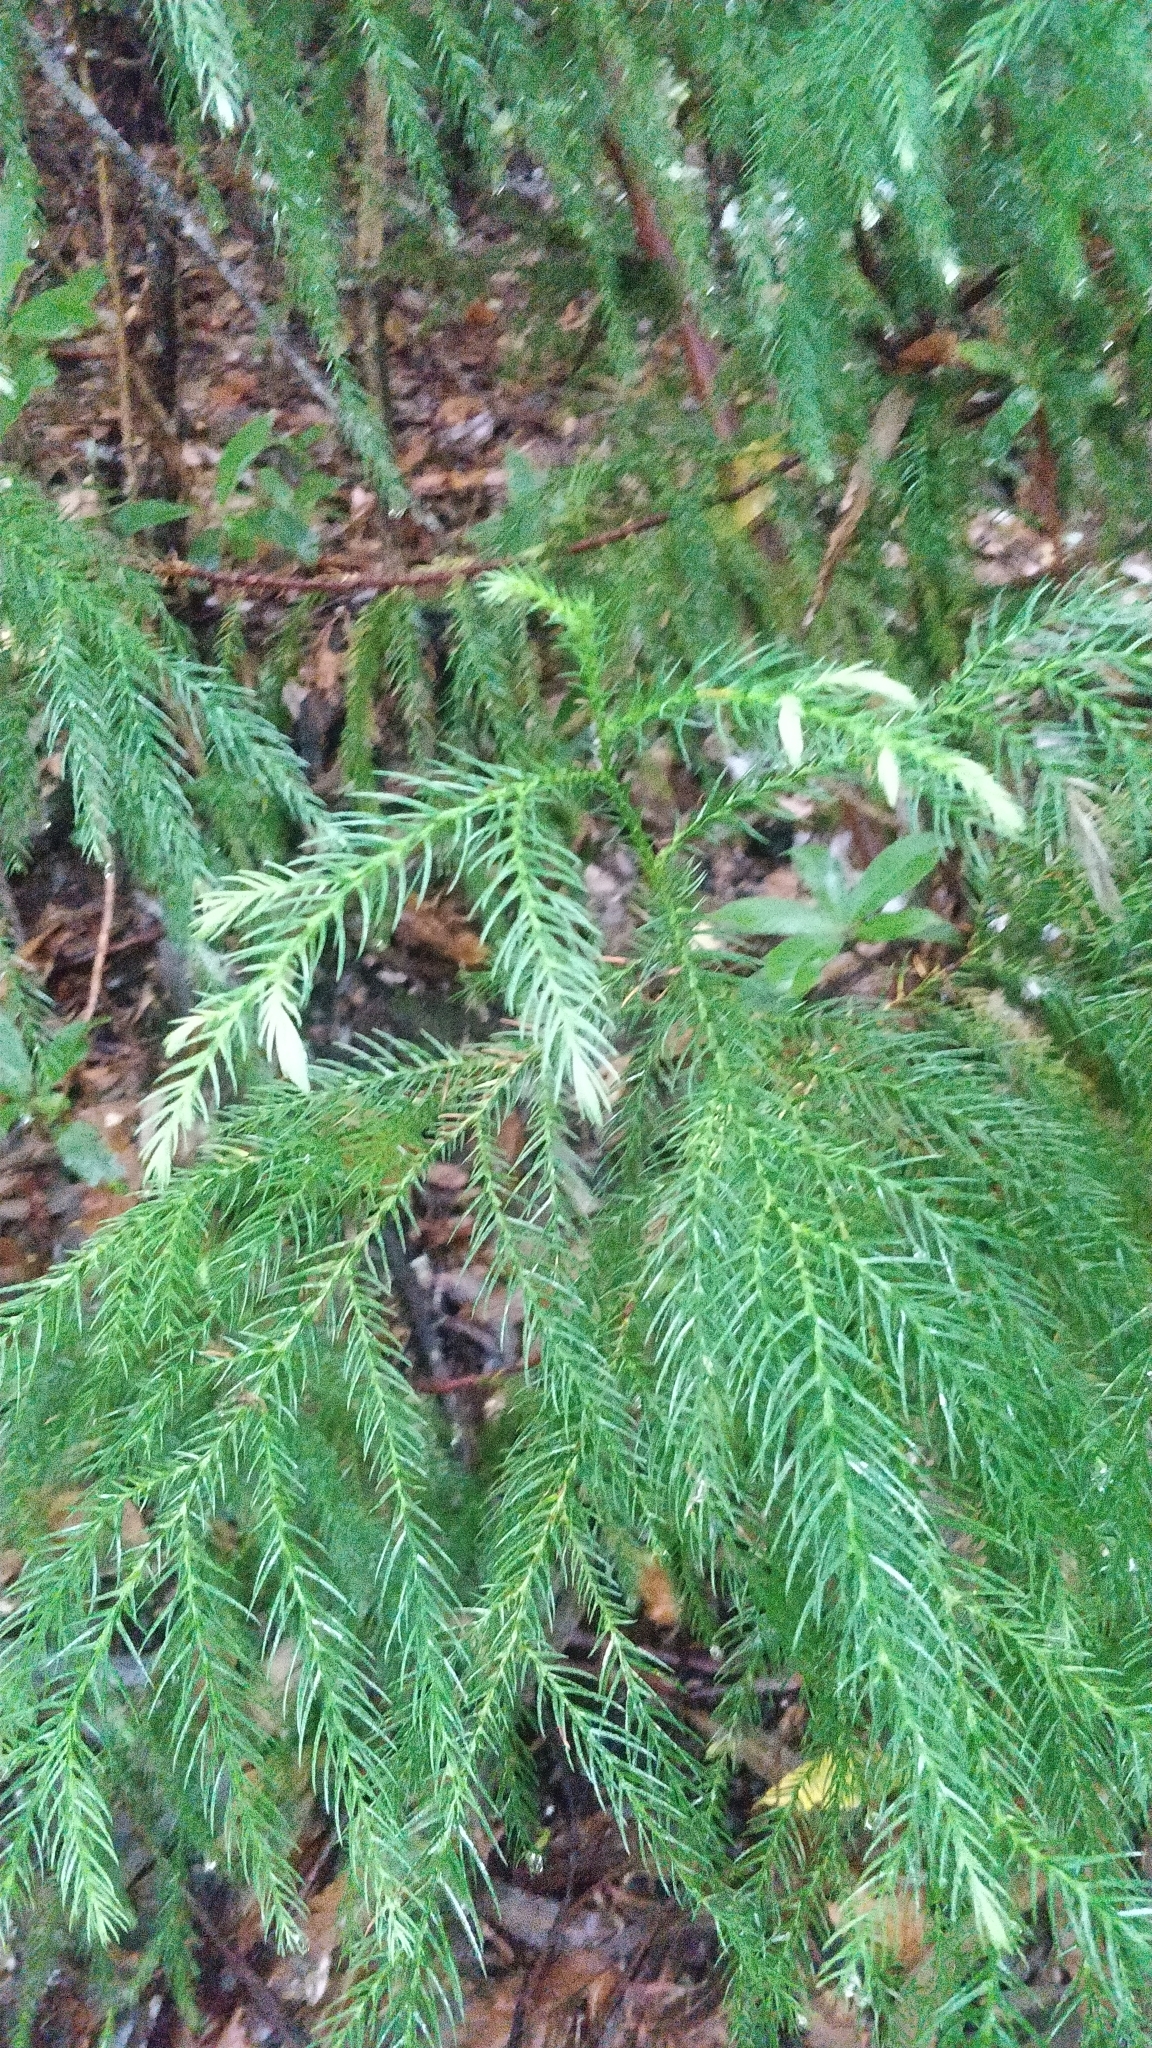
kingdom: Plantae
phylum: Tracheophyta
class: Pinopsida
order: Pinales
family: Cupressaceae
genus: Cryptomeria
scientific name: Cryptomeria japonica
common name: Japanese cedar
